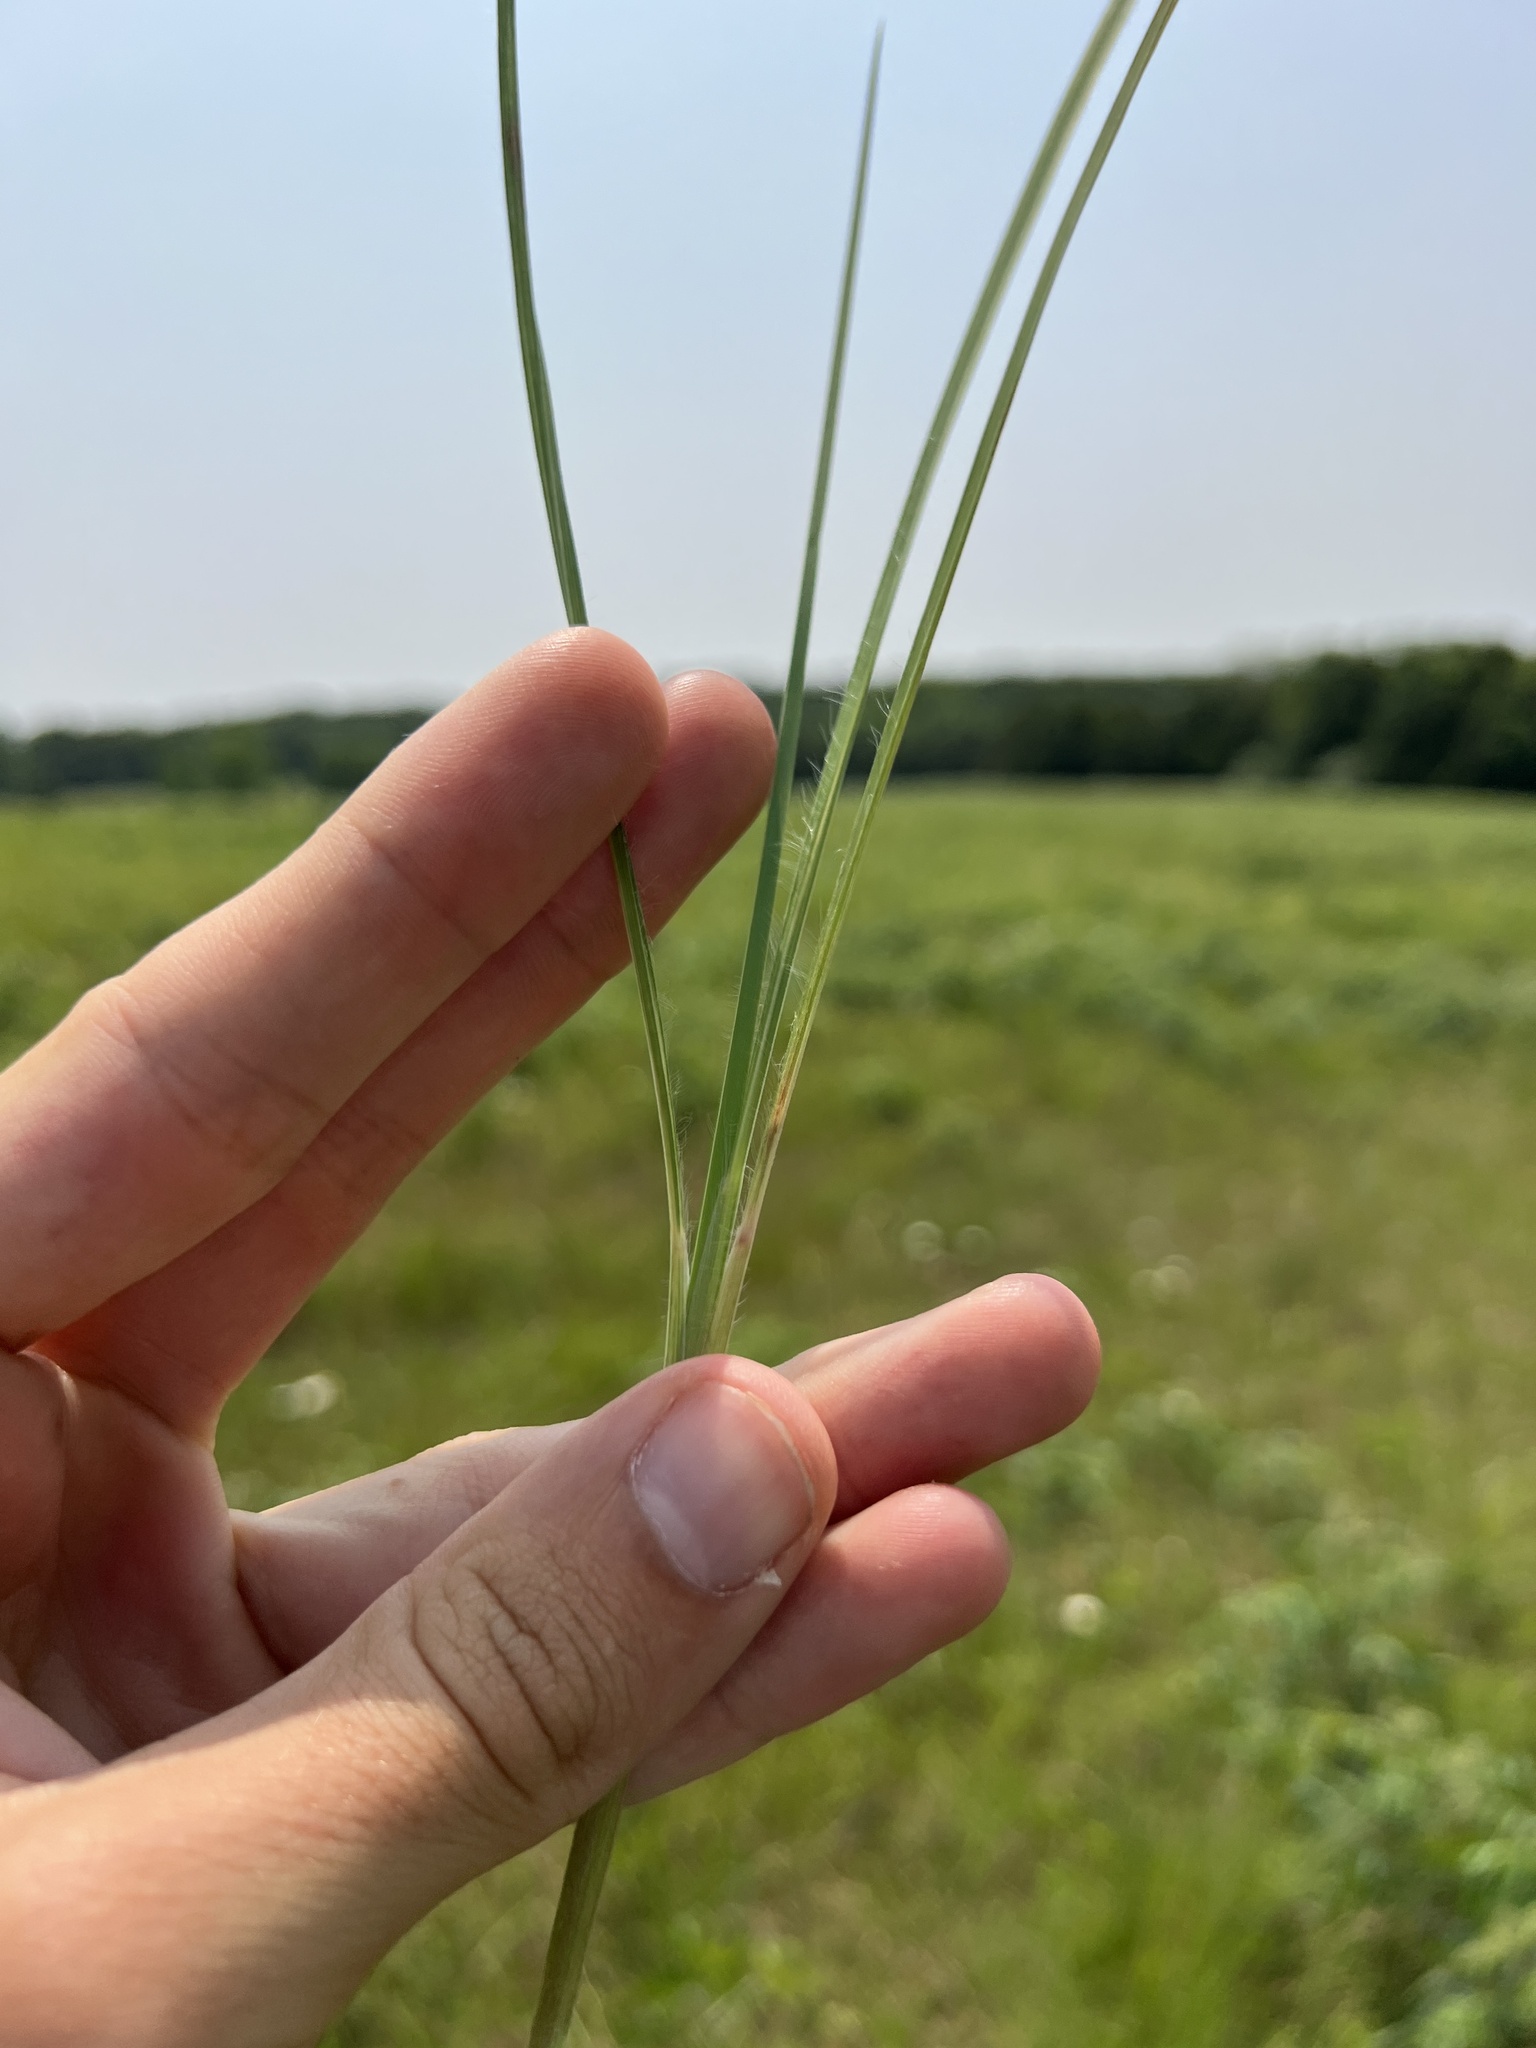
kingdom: Plantae
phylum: Tracheophyta
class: Liliopsida
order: Poales
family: Poaceae
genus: Schizachyrium
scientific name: Schizachyrium scoparium
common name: Little bluestem
